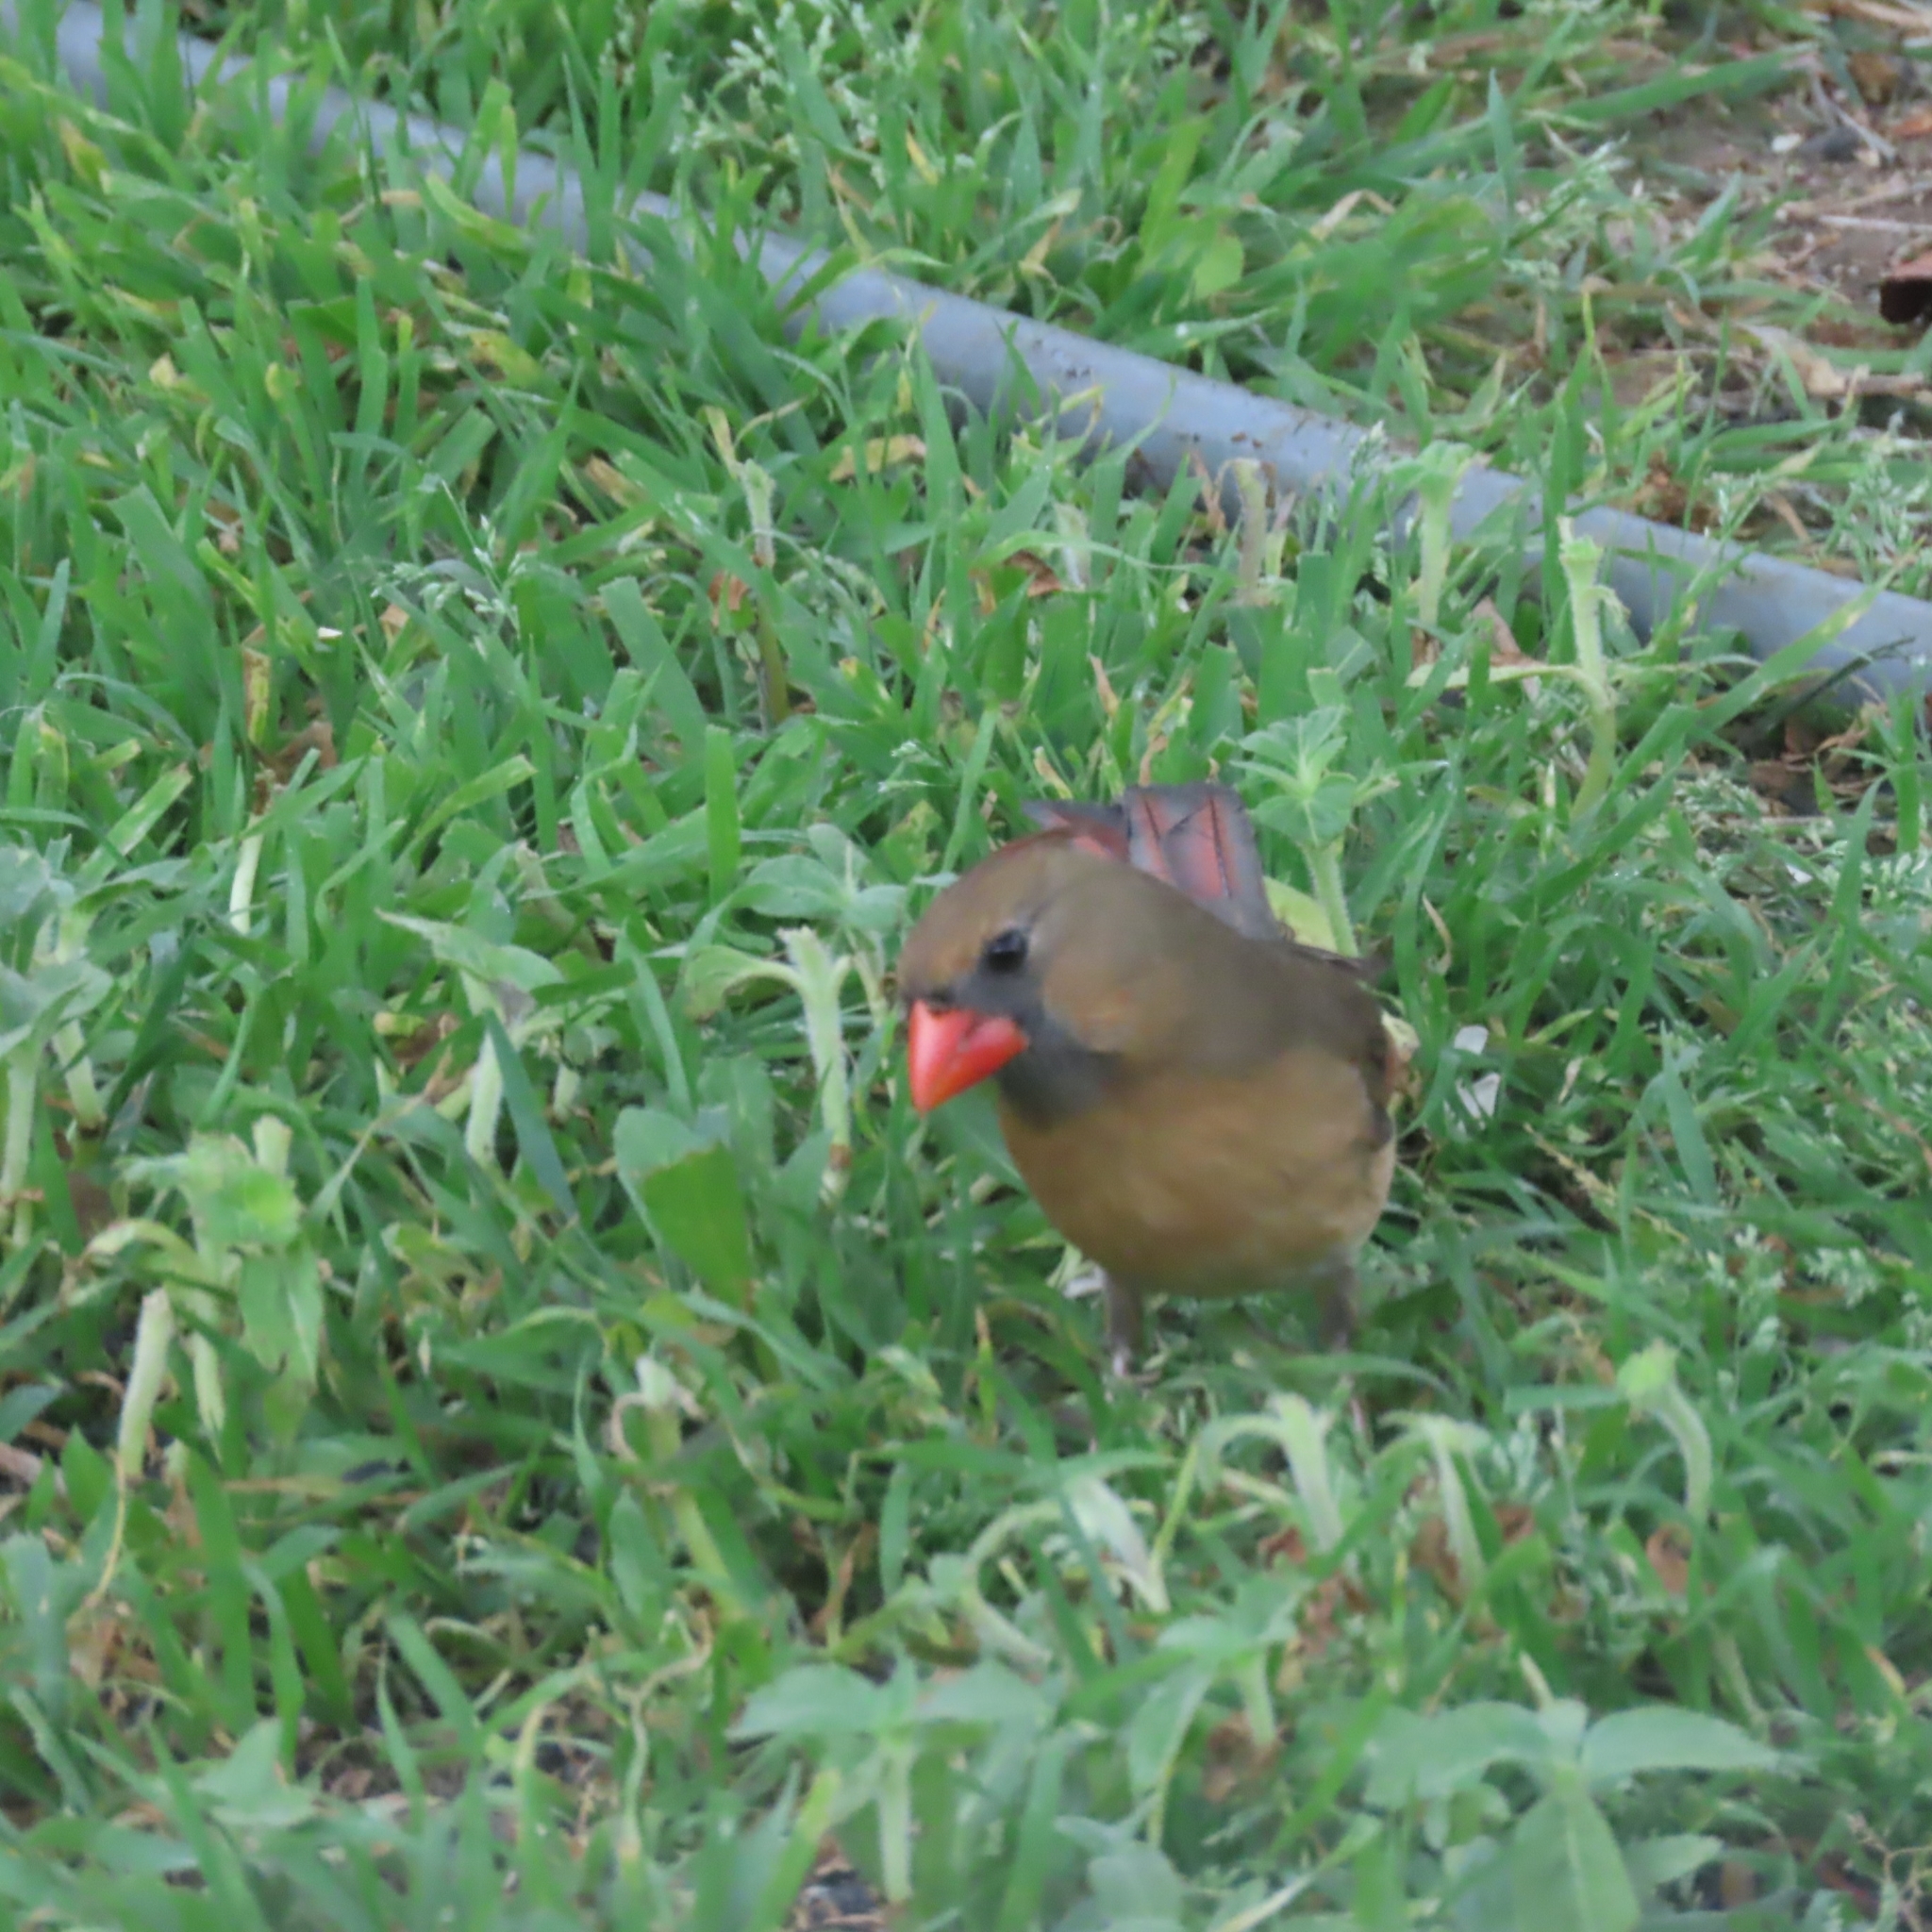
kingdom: Animalia
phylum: Chordata
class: Aves
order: Passeriformes
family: Cardinalidae
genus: Cardinalis
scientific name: Cardinalis cardinalis
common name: Northern cardinal
